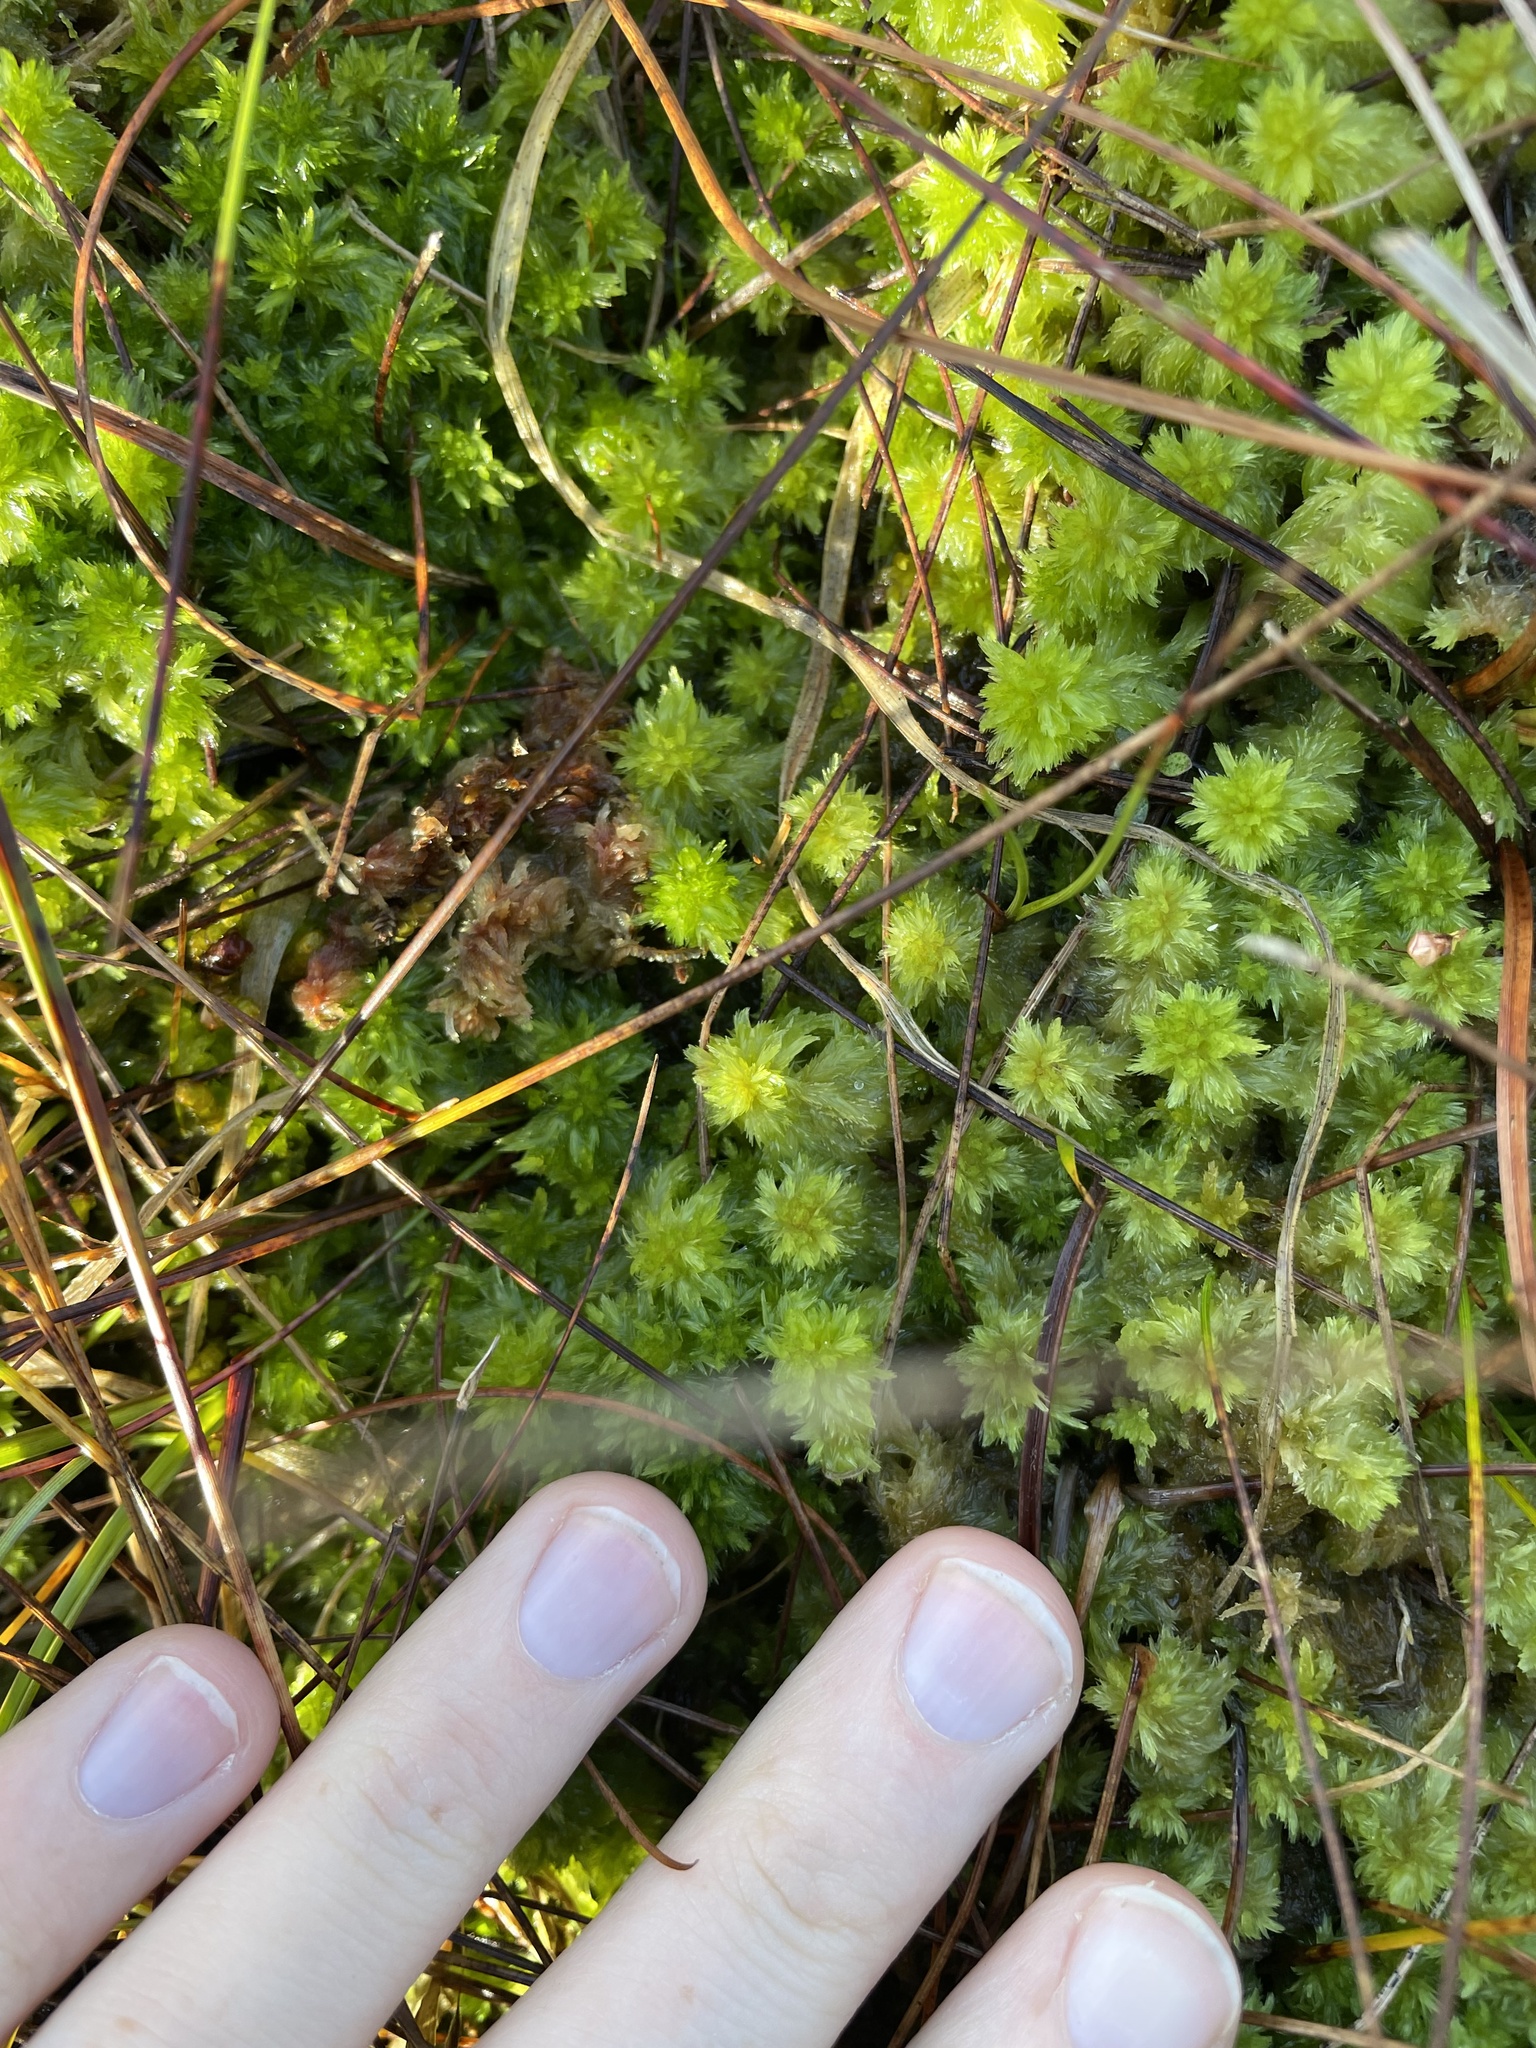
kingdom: Plantae
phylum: Bryophyta
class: Sphagnopsida
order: Sphagnales
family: Sphagnaceae
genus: Sphagnum
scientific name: Sphagnum cuspidatum
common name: Feathery peat moss
